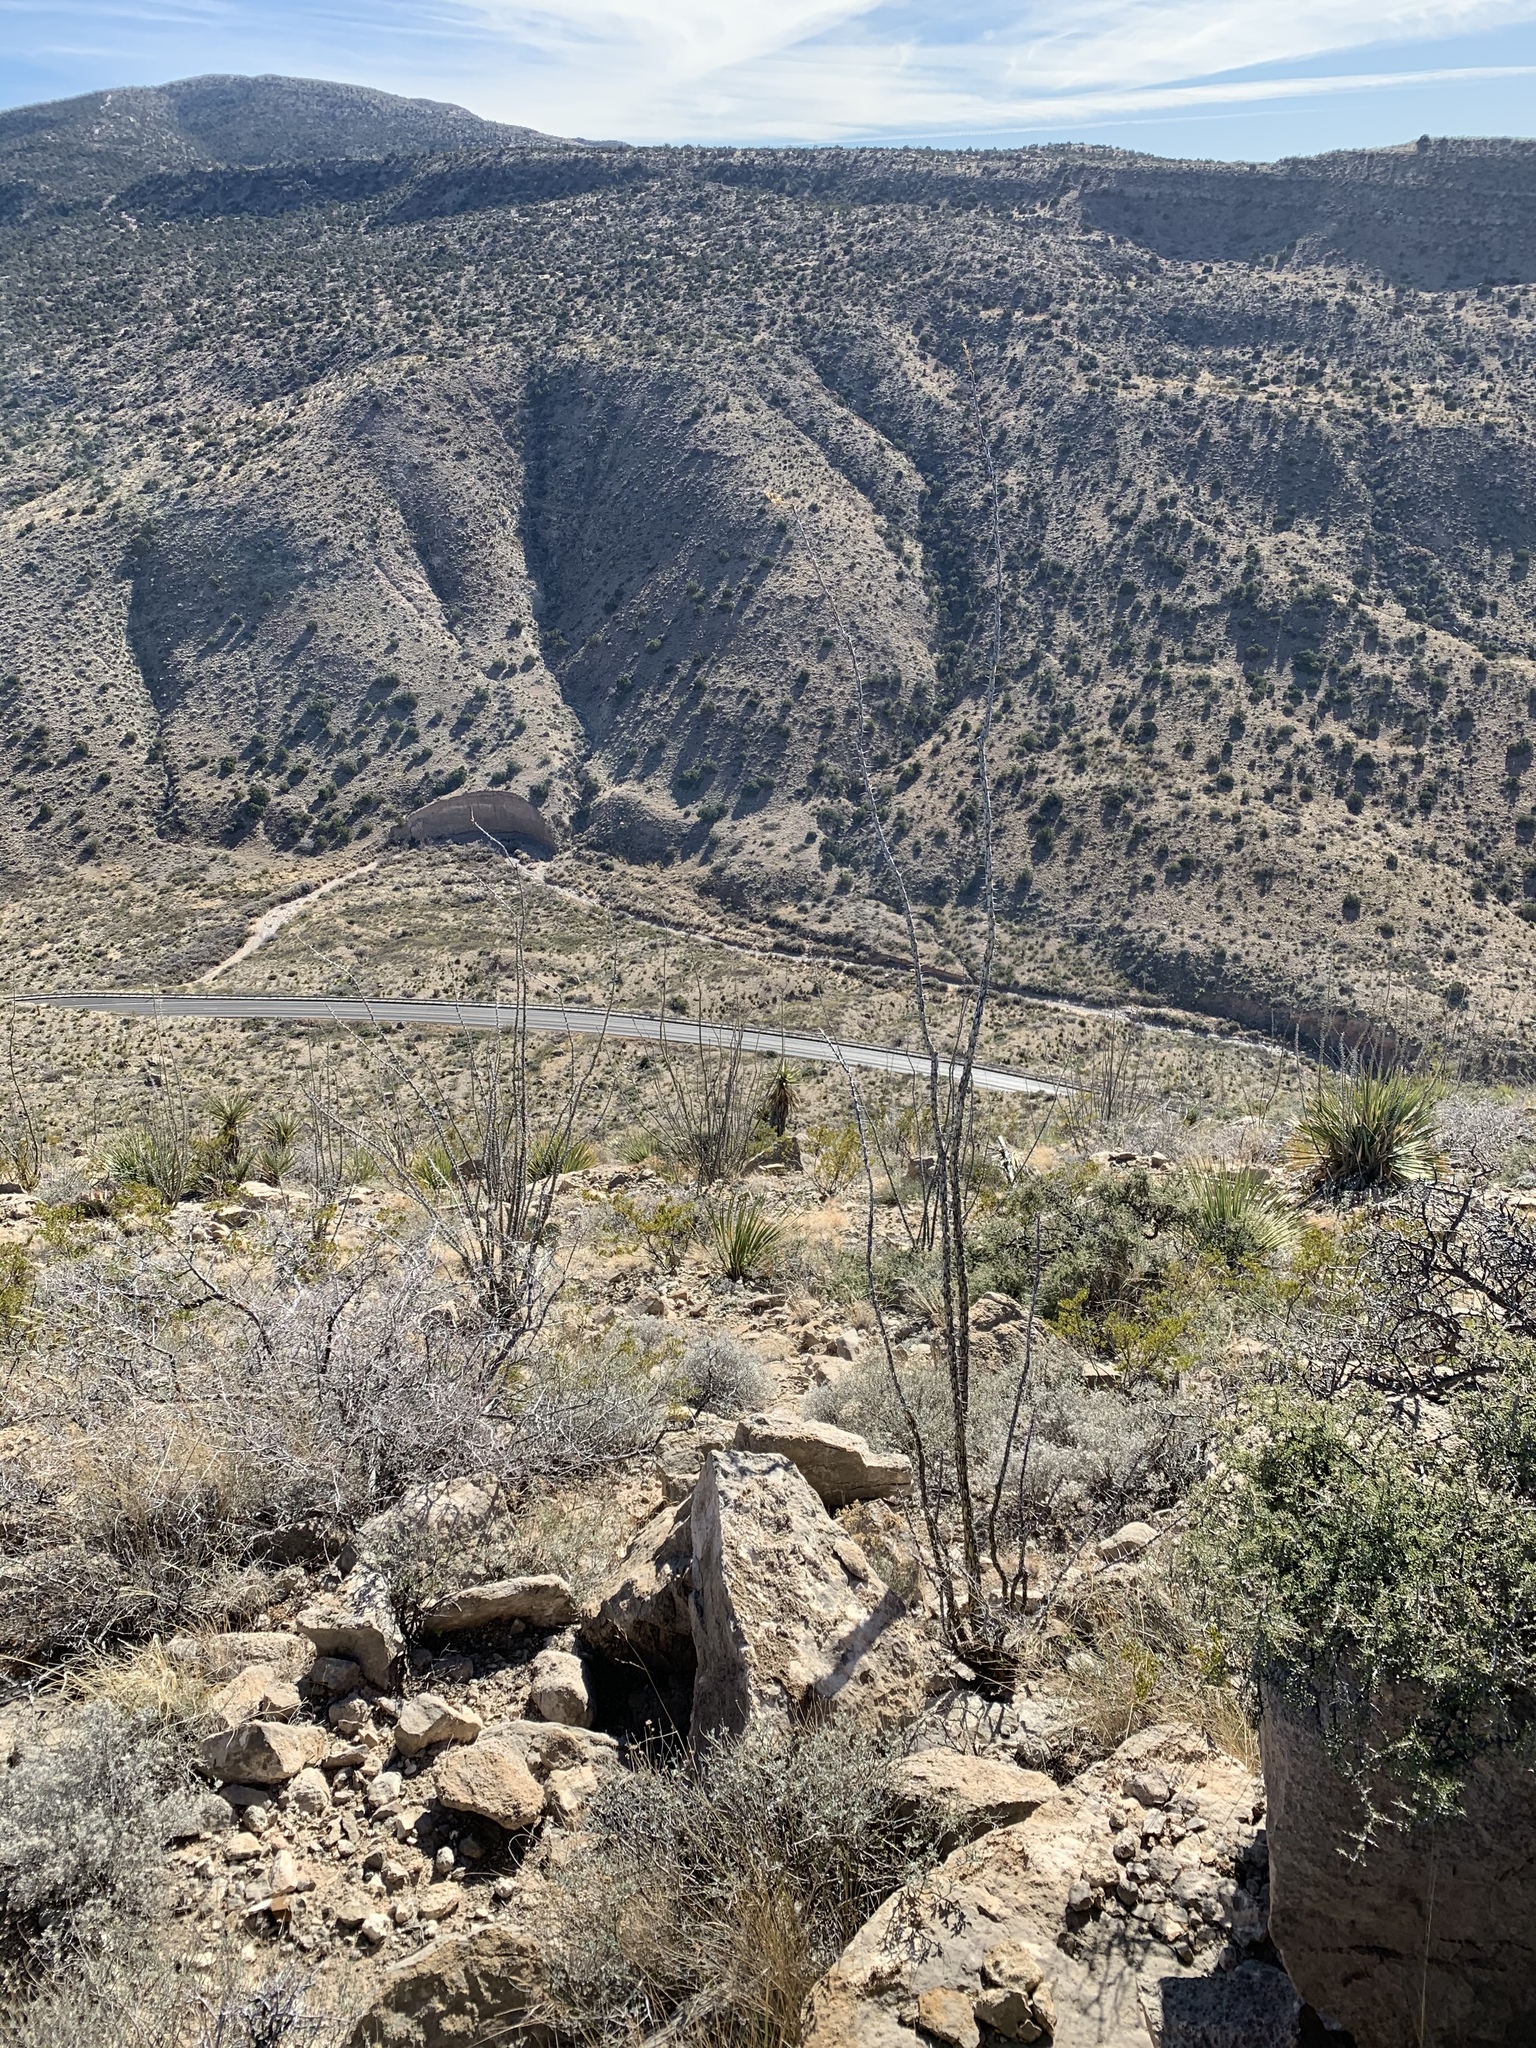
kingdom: Plantae
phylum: Tracheophyta
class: Magnoliopsida
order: Ericales
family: Fouquieriaceae
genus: Fouquieria
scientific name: Fouquieria splendens
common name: Vine-cactus
